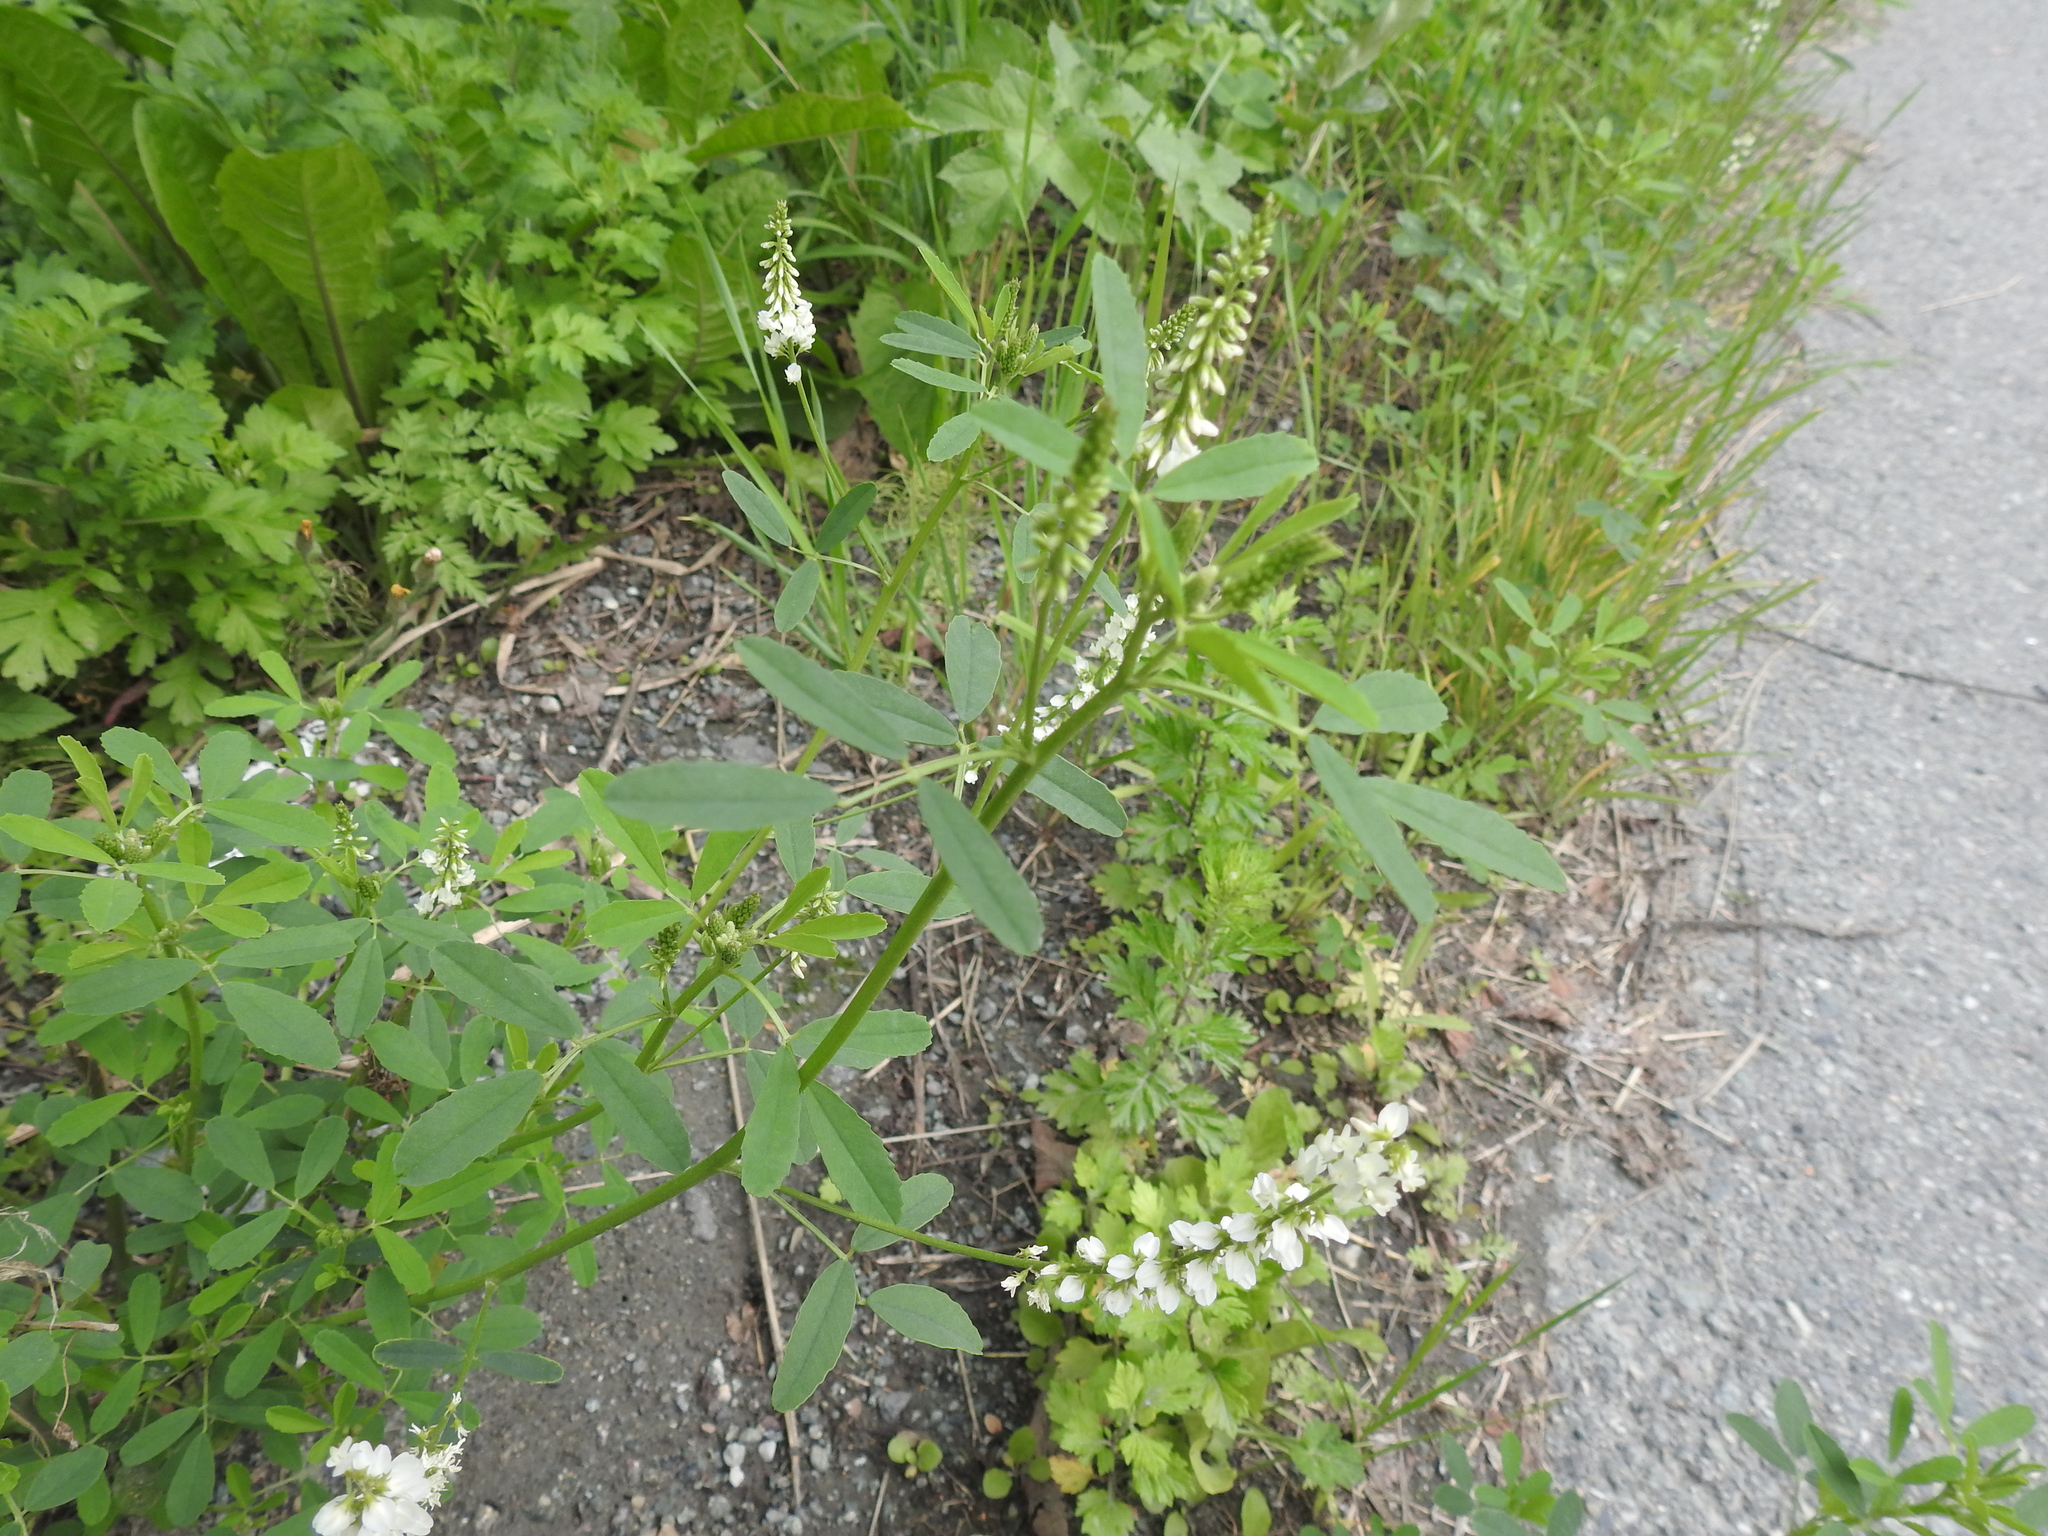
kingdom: Plantae
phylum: Tracheophyta
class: Magnoliopsida
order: Fabales
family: Fabaceae
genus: Melilotus
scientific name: Melilotus albus
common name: White melilot
